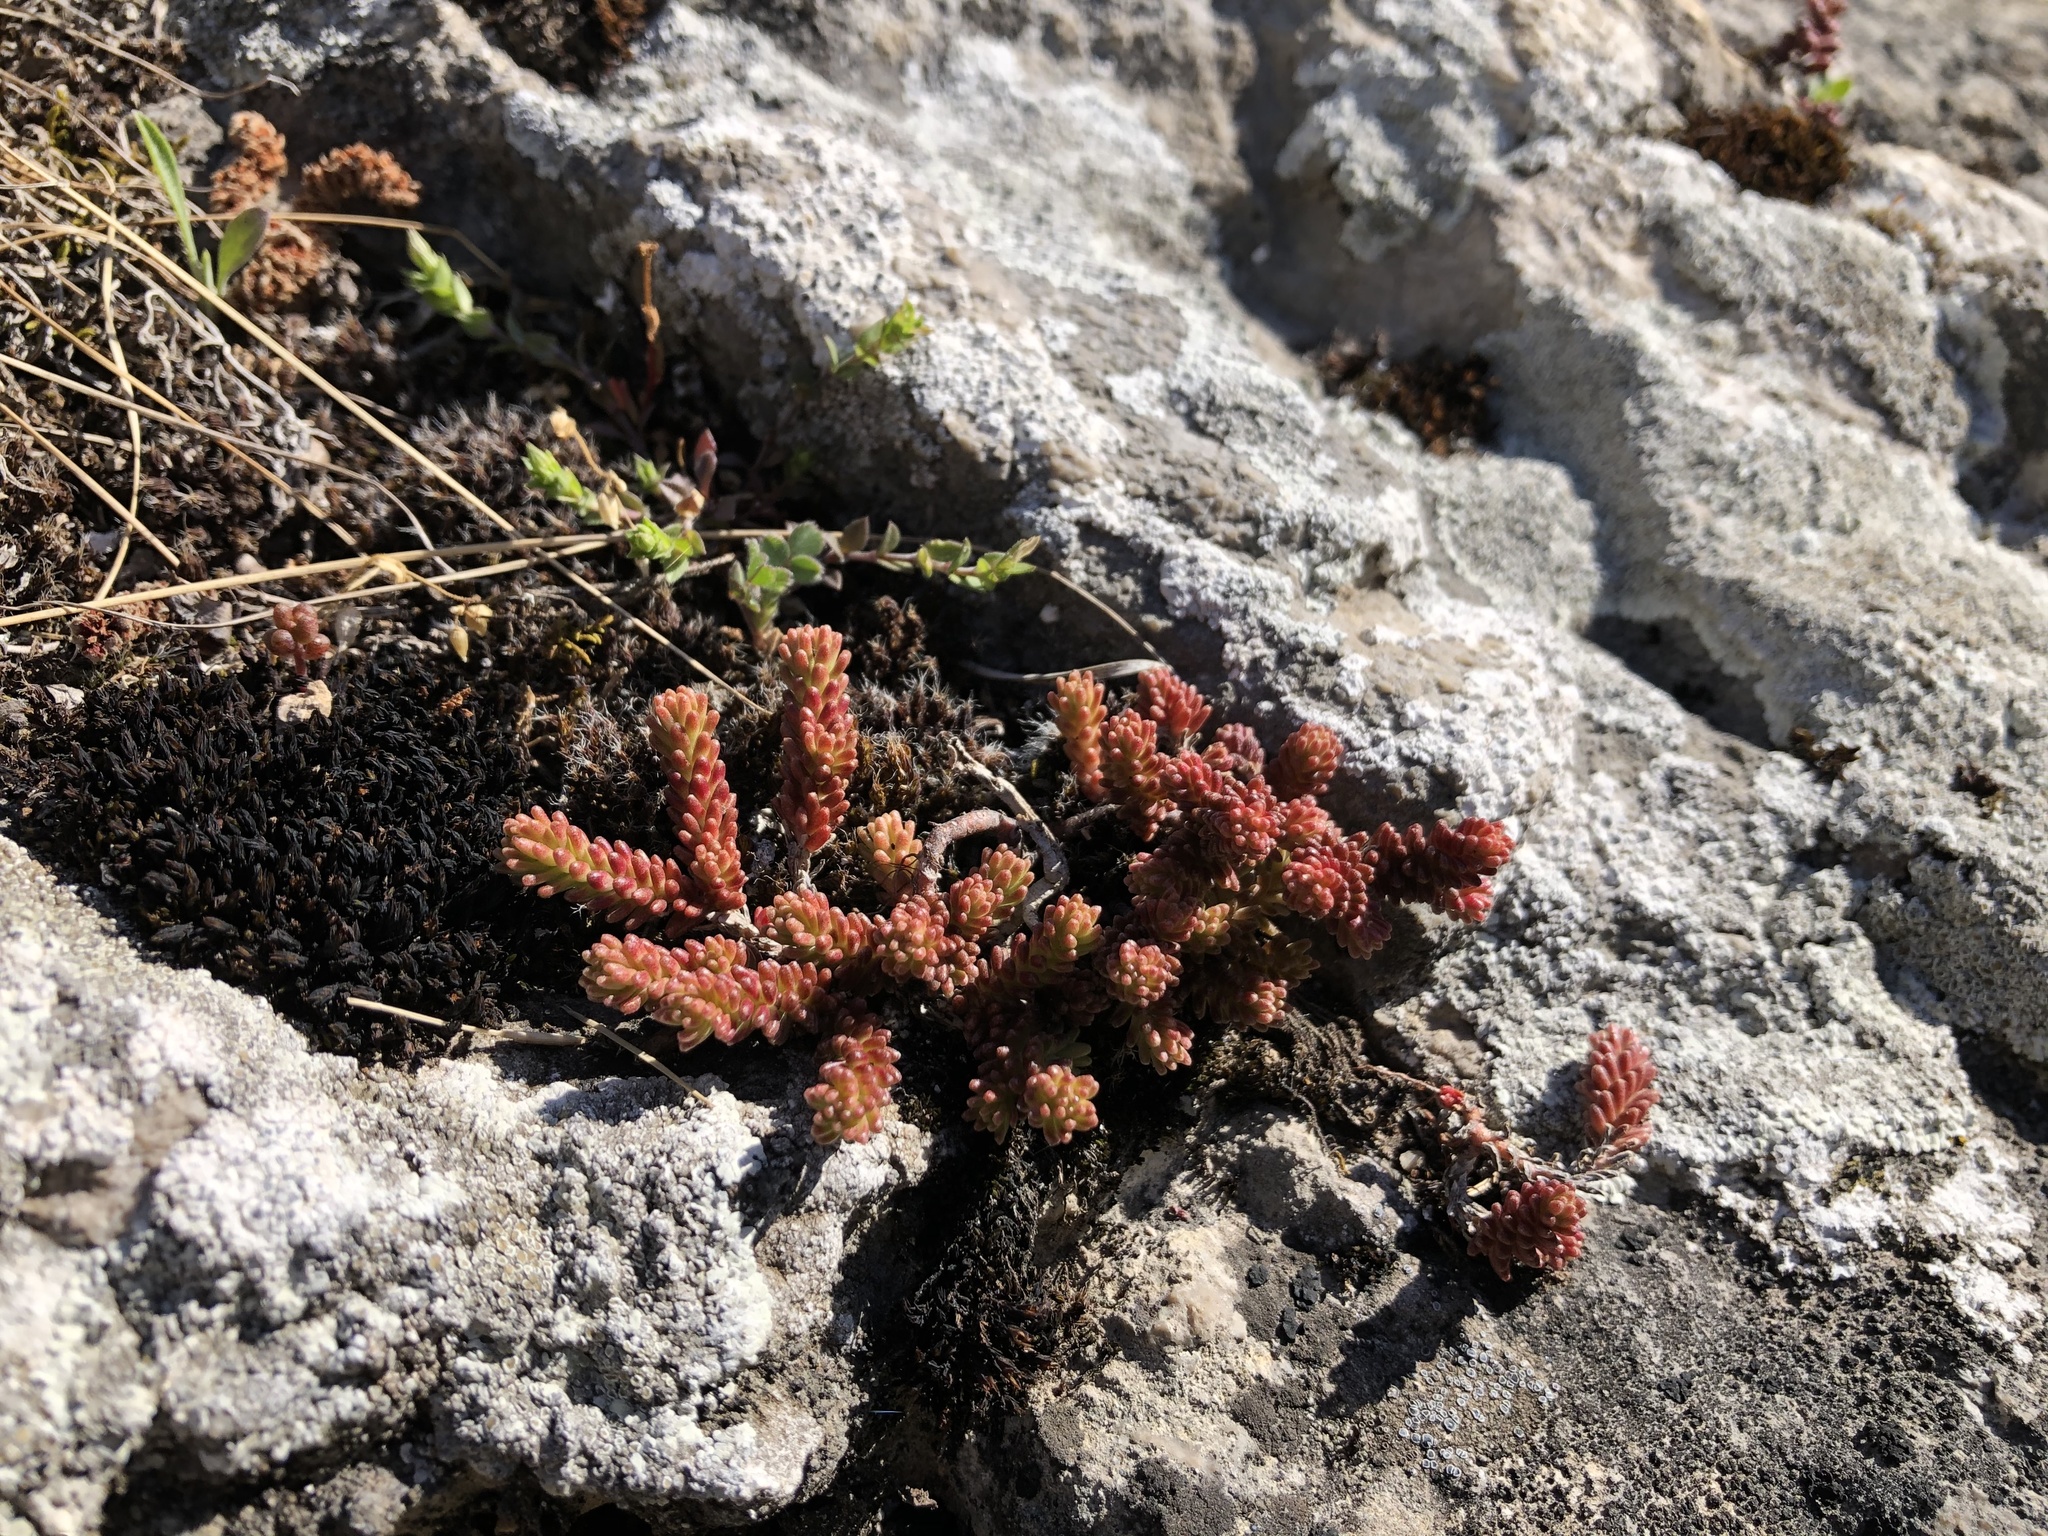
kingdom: Plantae
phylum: Tracheophyta
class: Magnoliopsida
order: Saxifragales
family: Crassulaceae
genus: Sedum
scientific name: Sedum sexangulare
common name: Tasteless stonecrop
